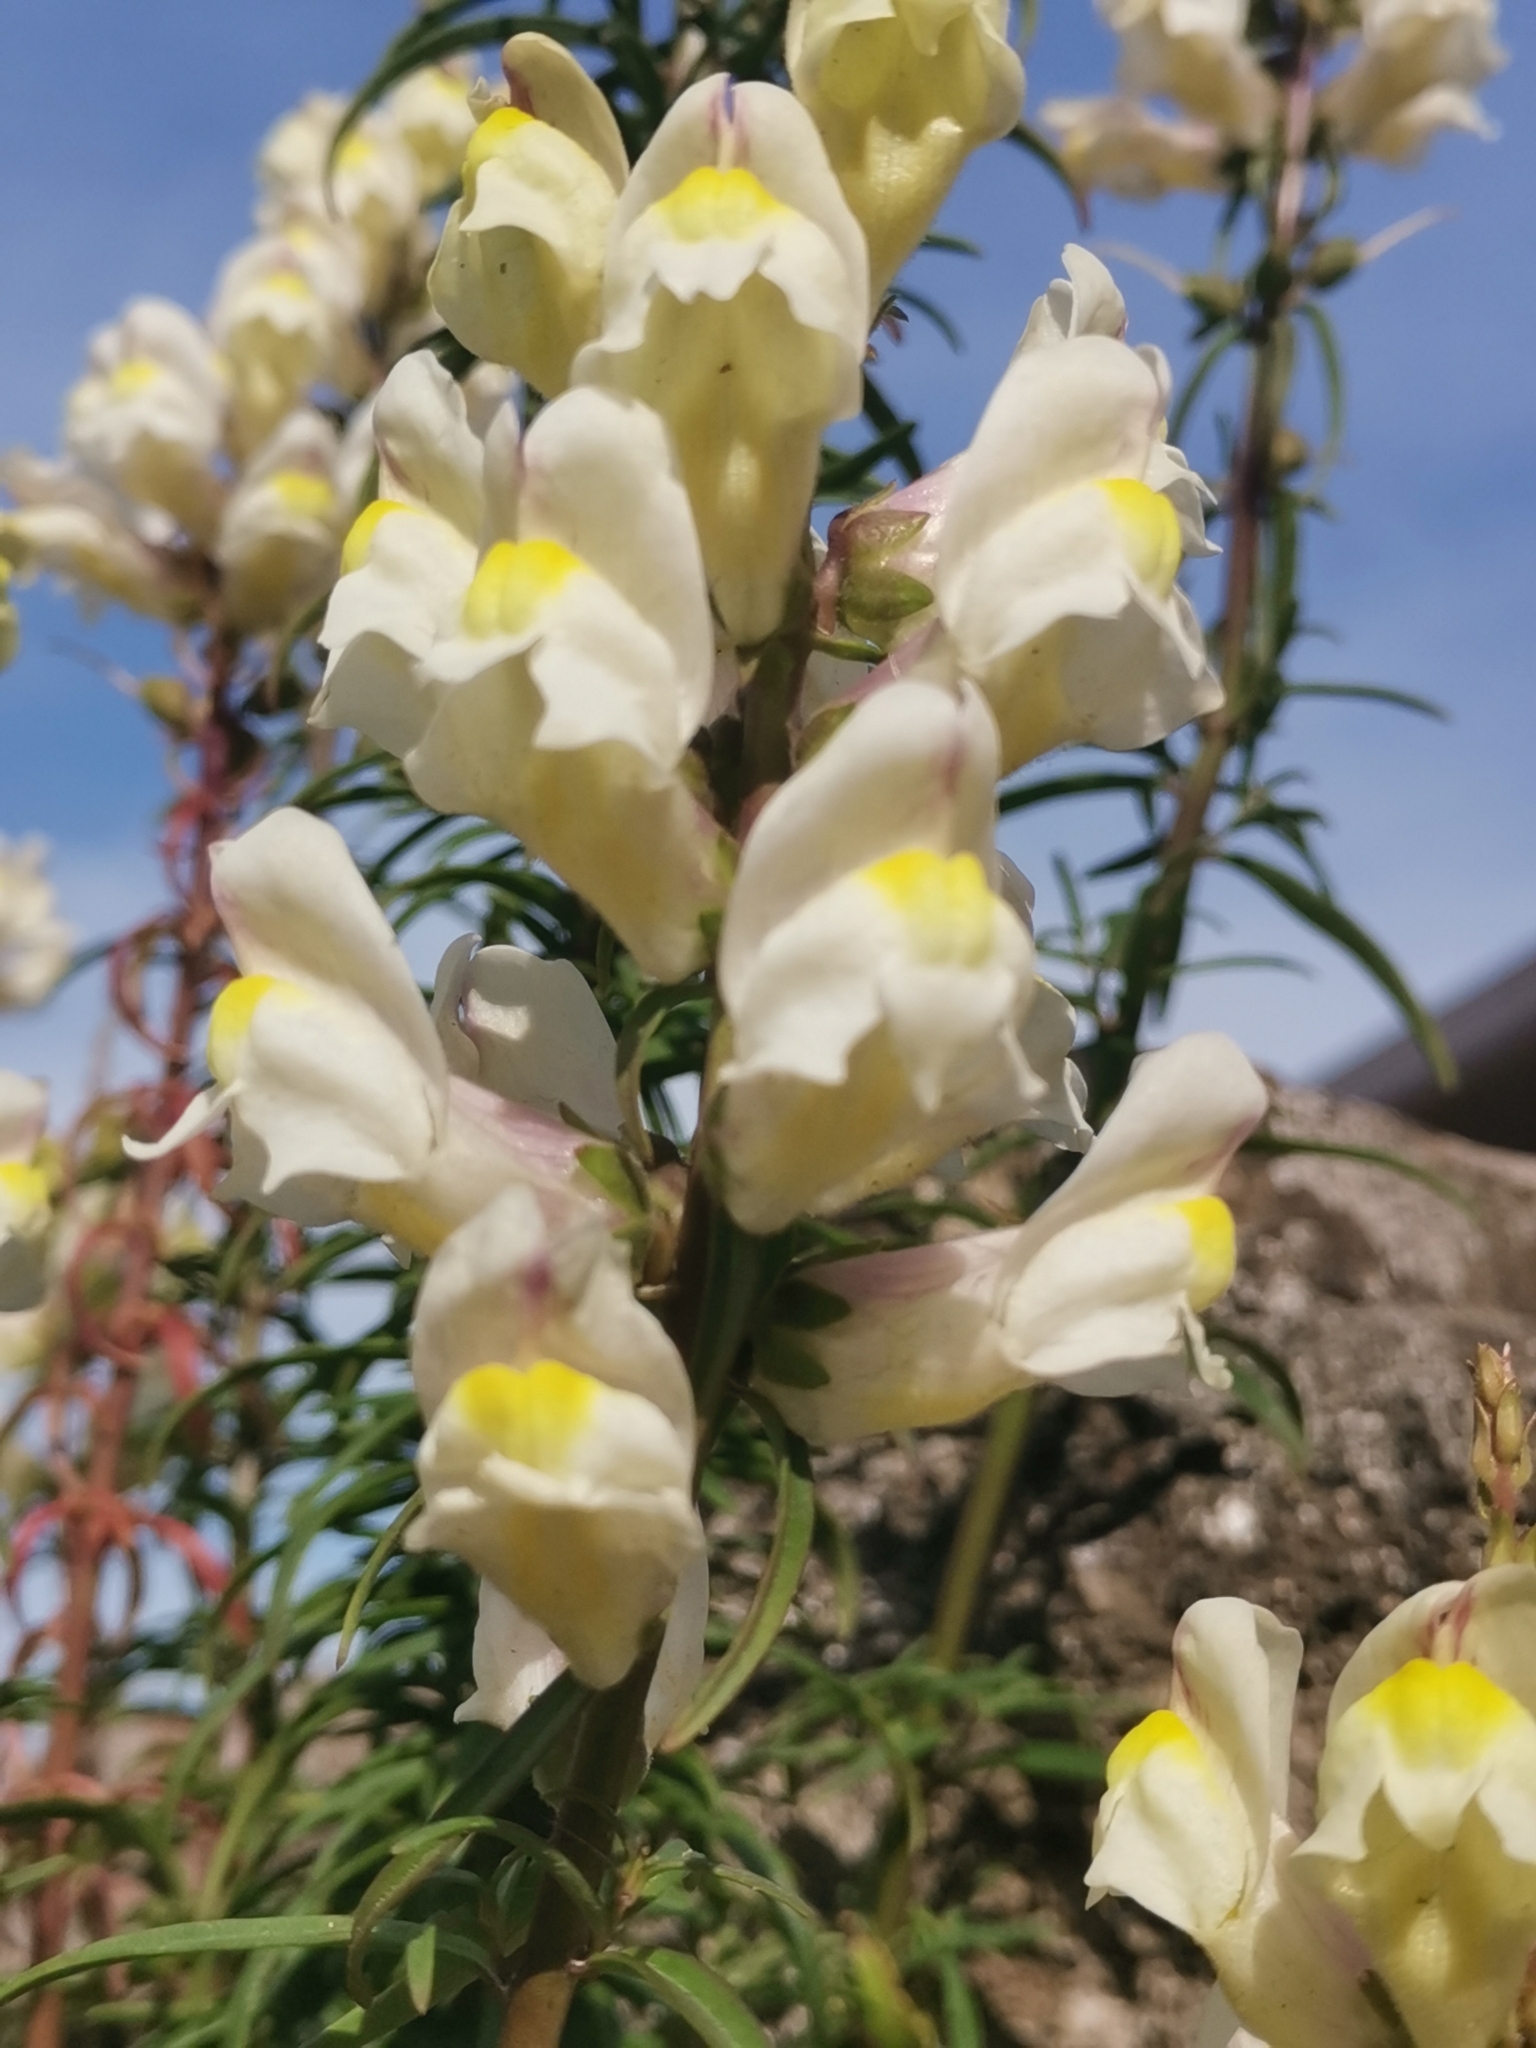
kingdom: Plantae
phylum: Tracheophyta
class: Magnoliopsida
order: Lamiales
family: Plantaginaceae
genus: Antirrhinum
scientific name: Antirrhinum siculum
